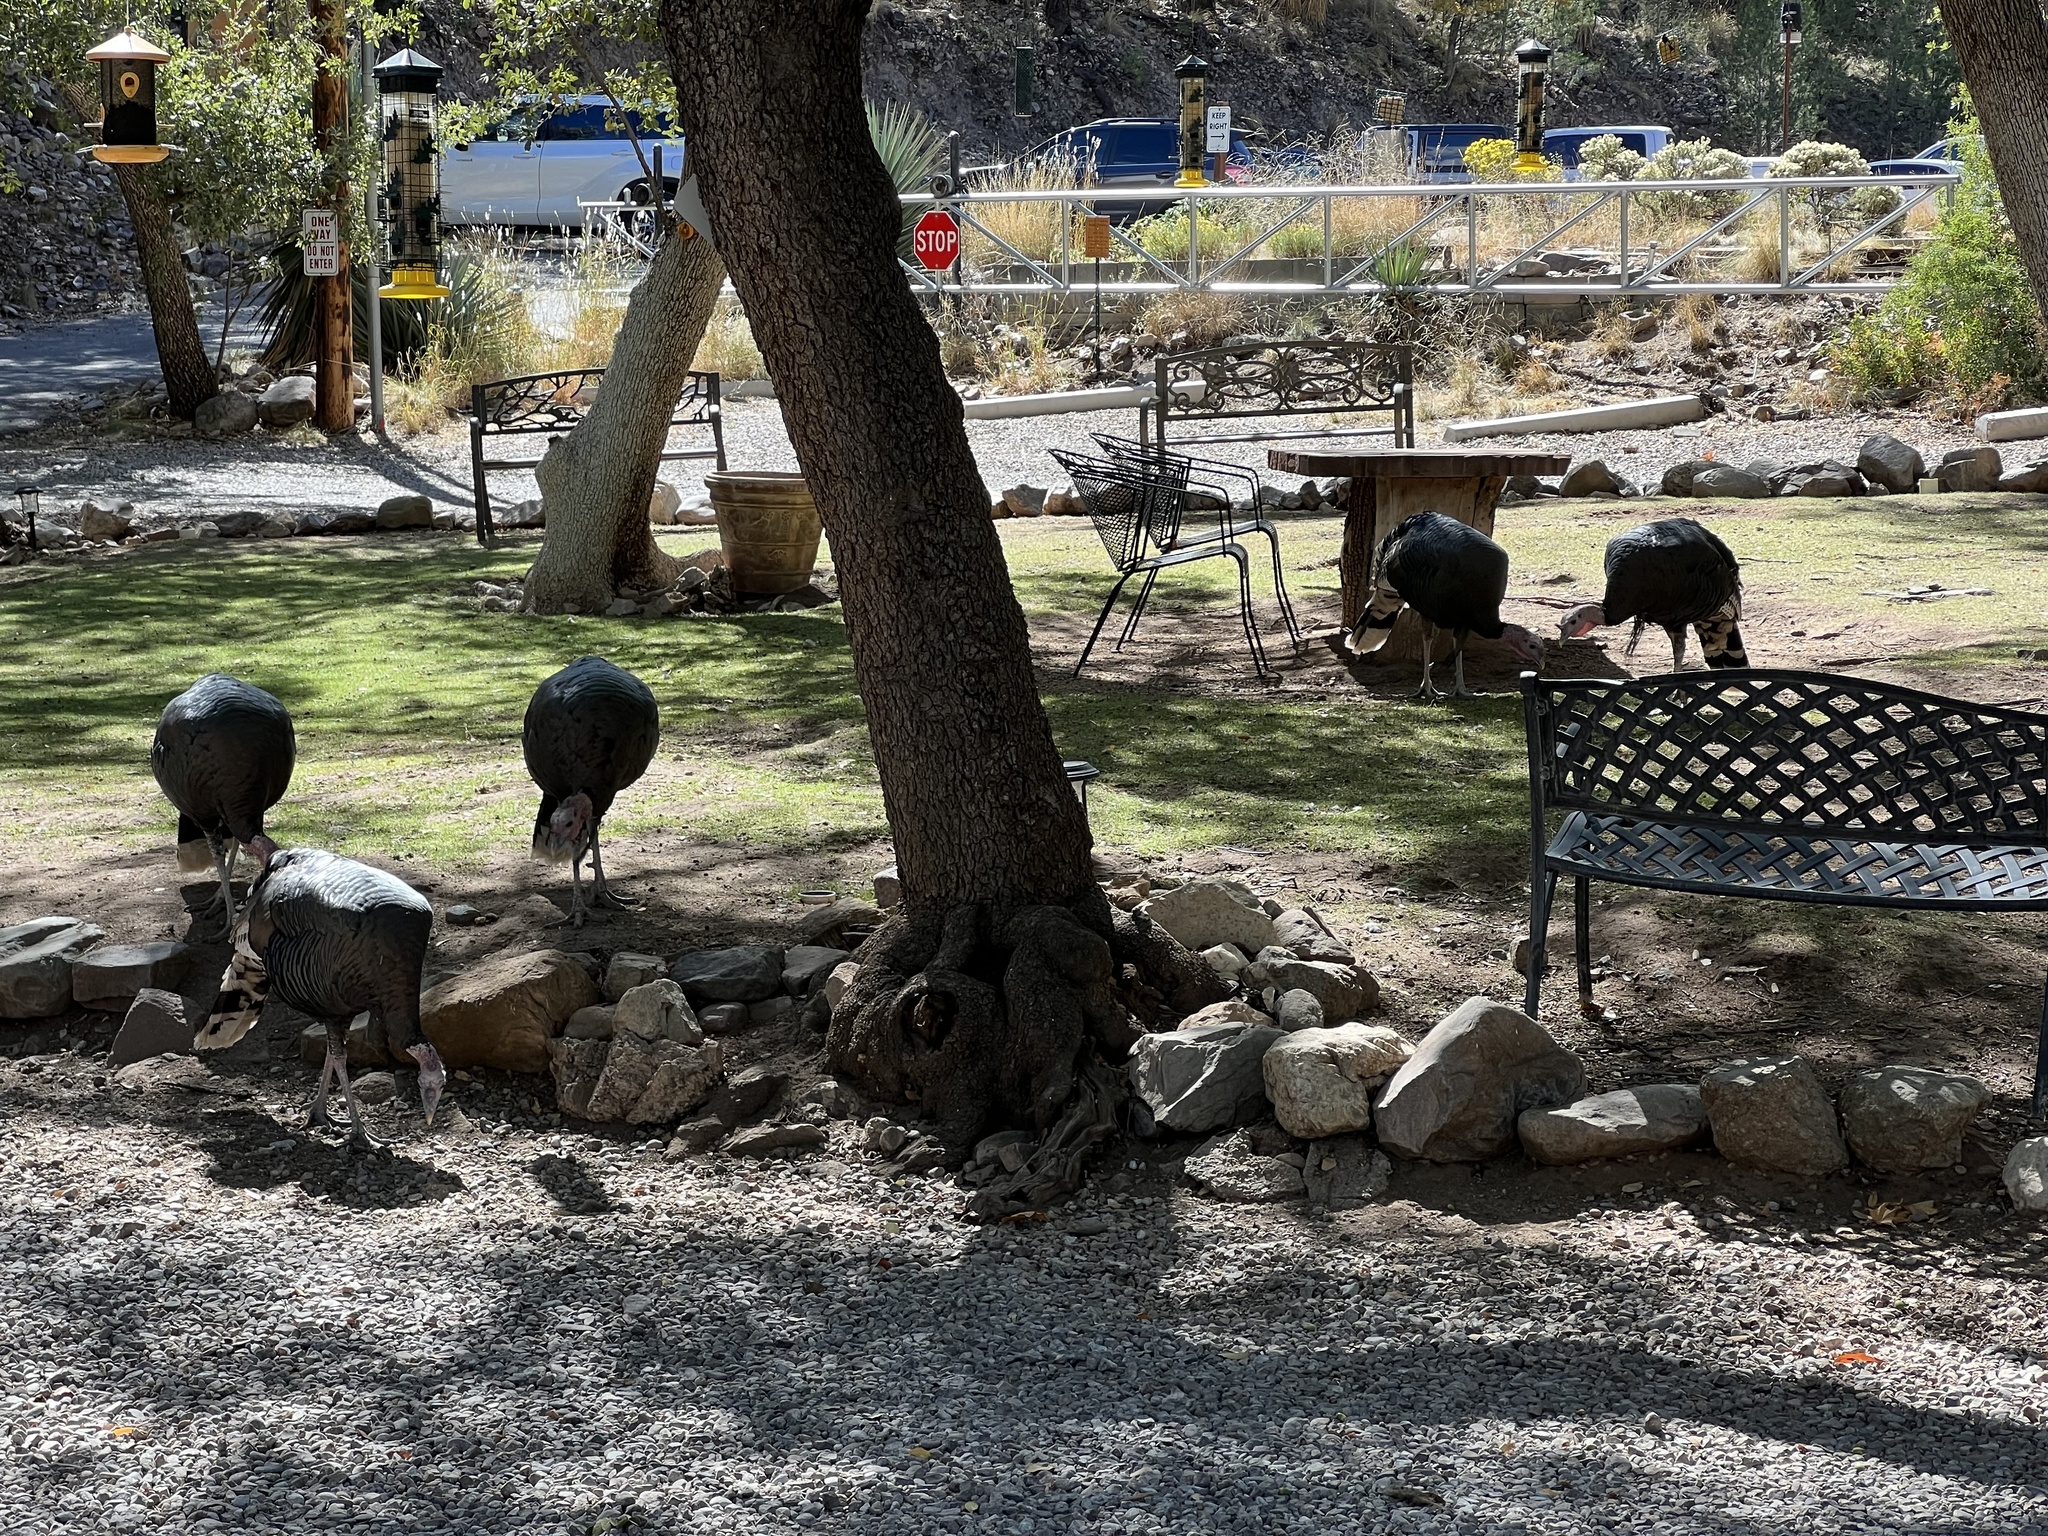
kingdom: Animalia
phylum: Chordata
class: Aves
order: Galliformes
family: Phasianidae
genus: Meleagris
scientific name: Meleagris gallopavo
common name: Wild turkey
